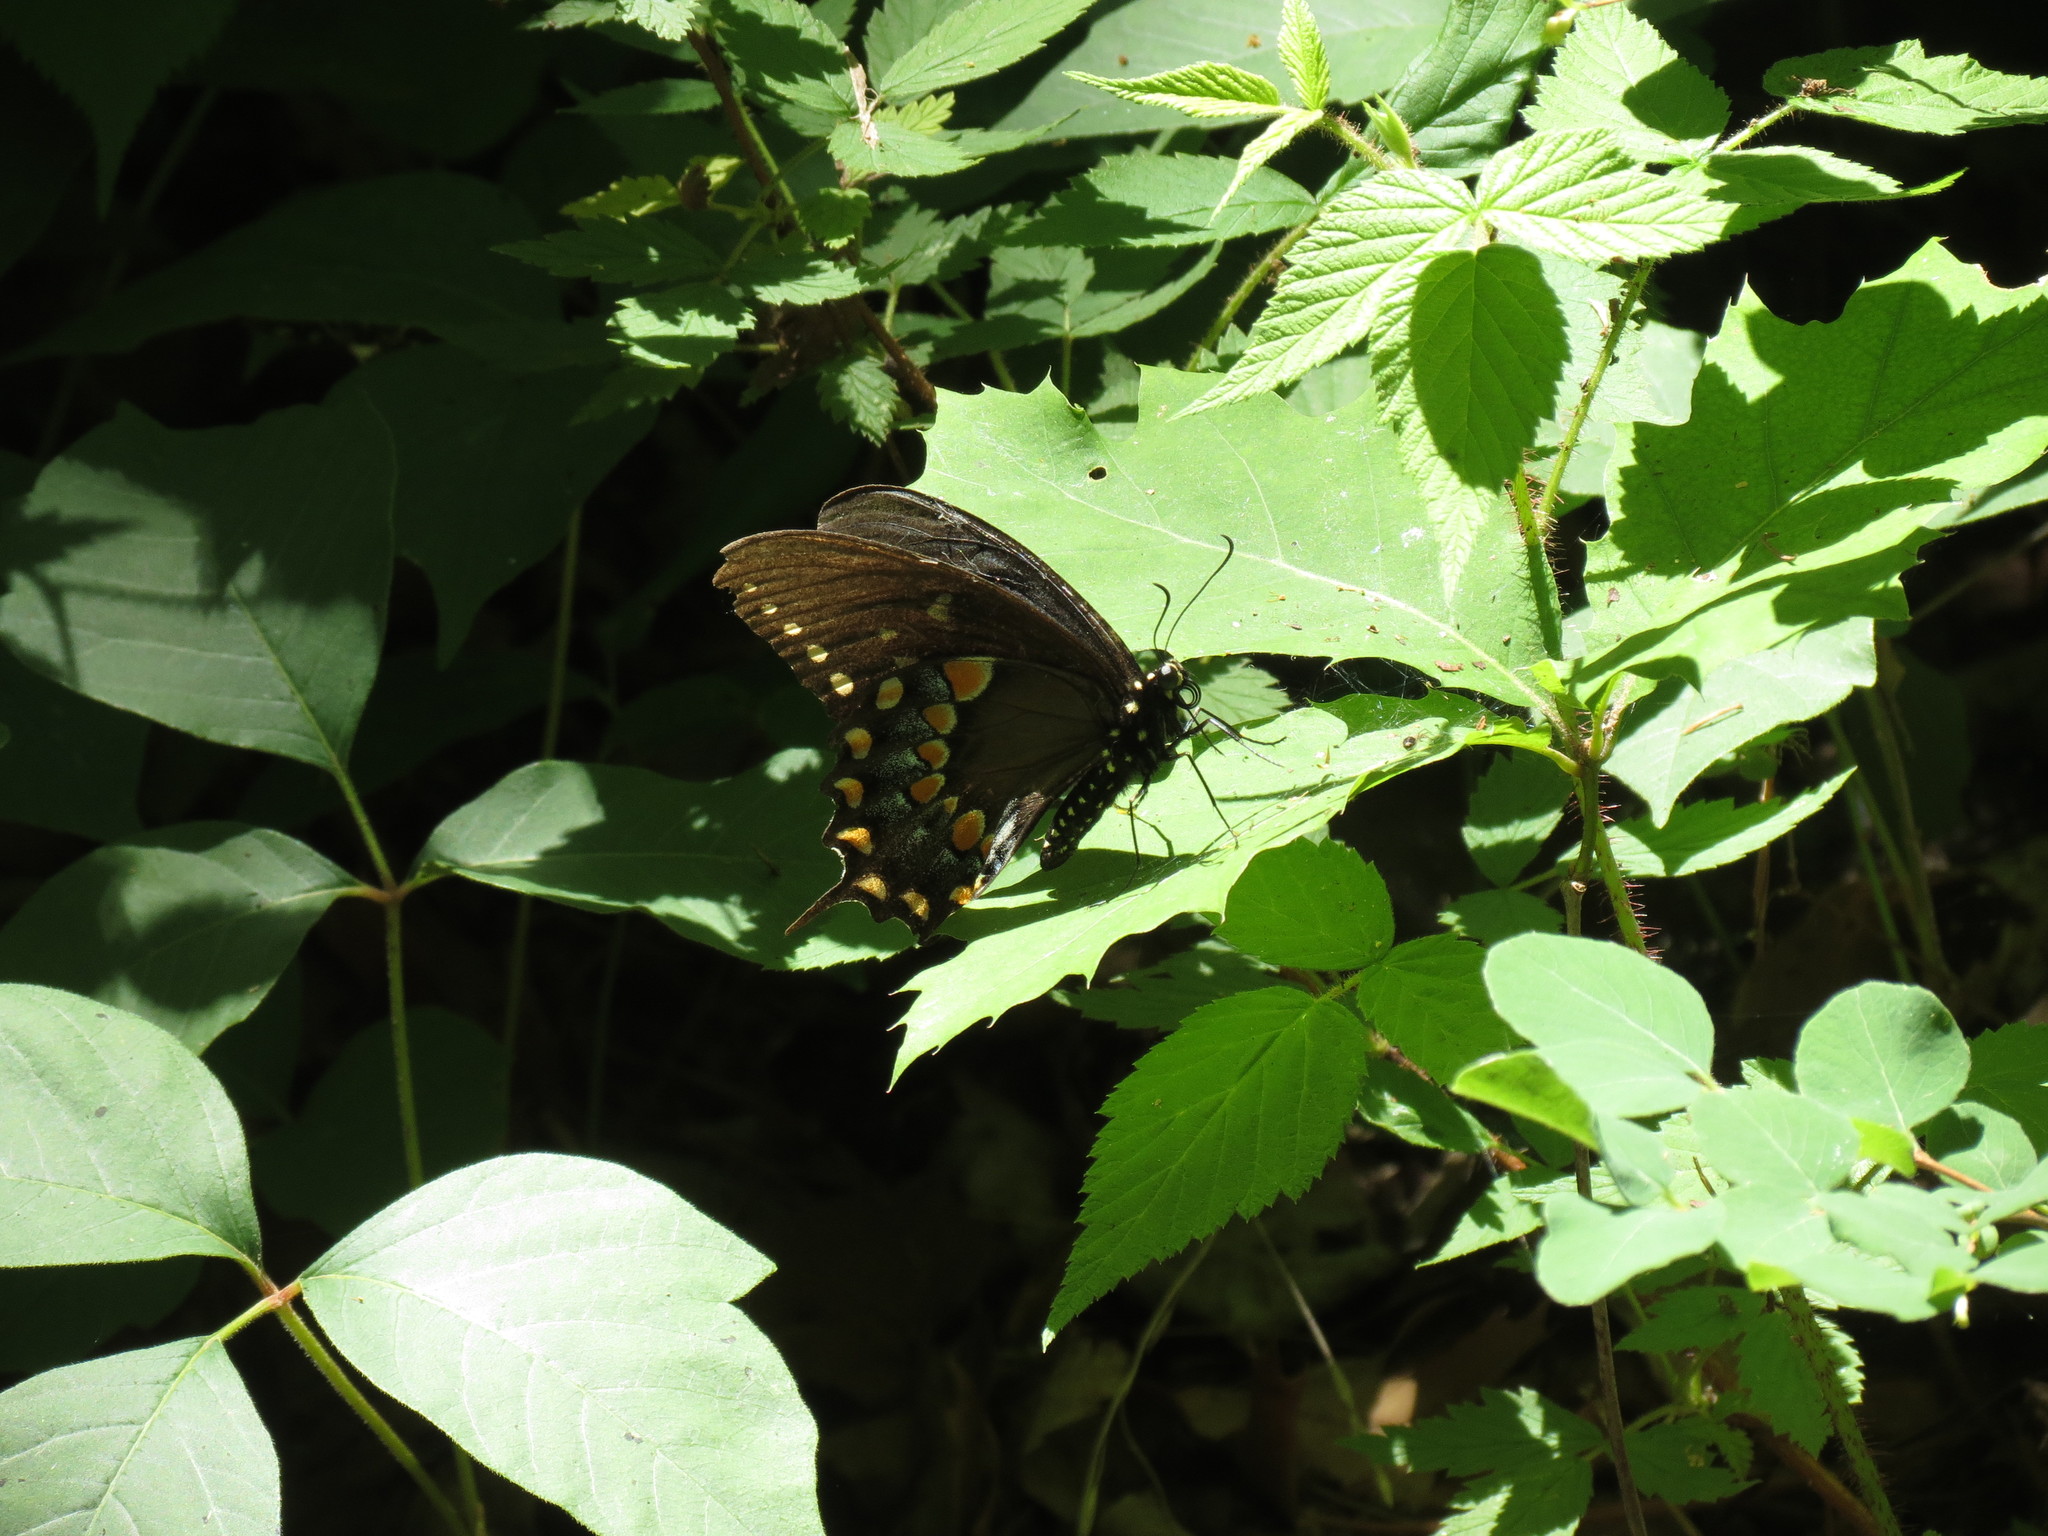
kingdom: Animalia
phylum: Arthropoda
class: Insecta
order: Lepidoptera
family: Papilionidae
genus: Papilio
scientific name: Papilio troilus
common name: Spicebush swallowtail
